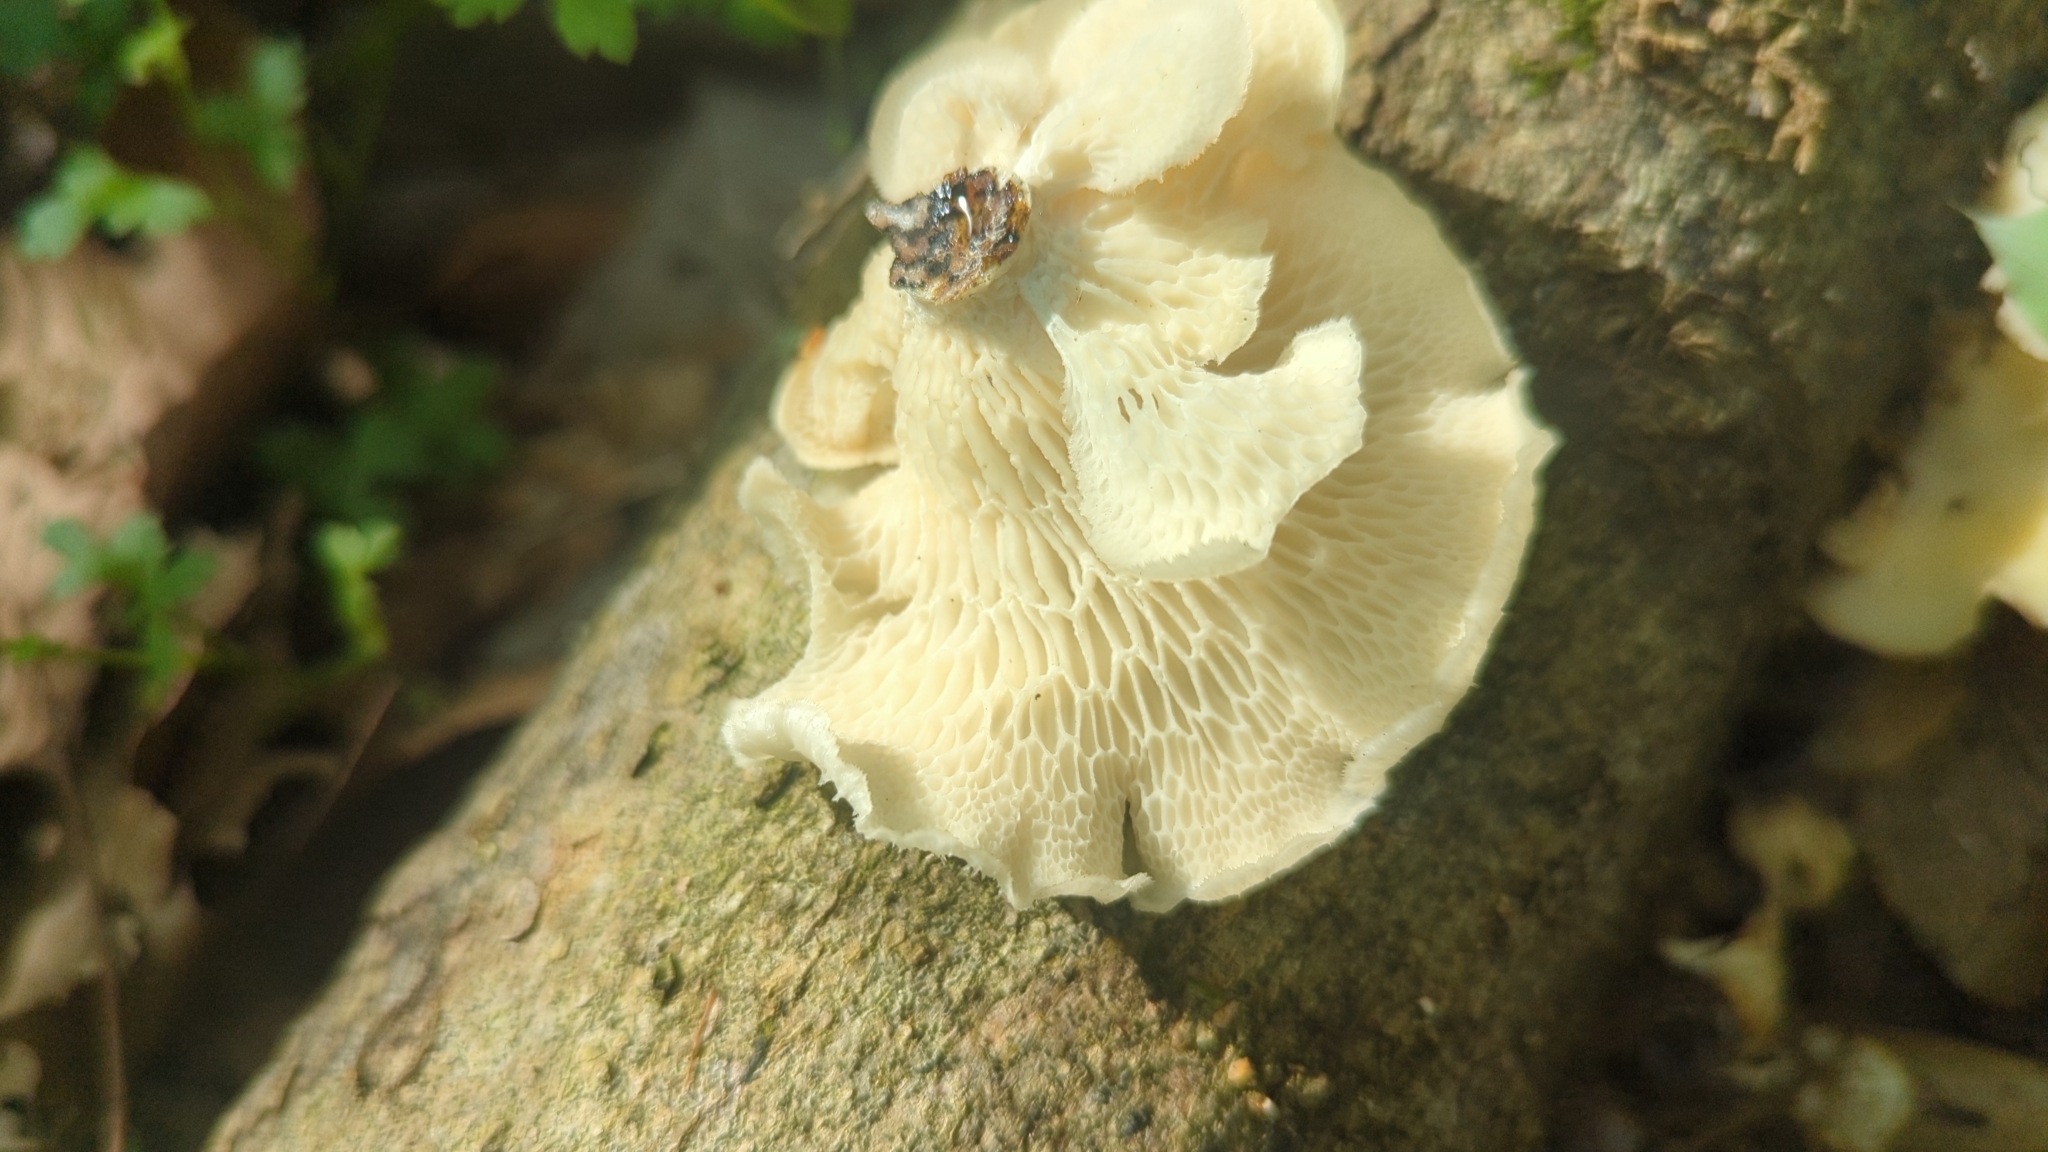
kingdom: Fungi
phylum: Basidiomycota
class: Agaricomycetes
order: Polyporales
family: Polyporaceae
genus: Favolus
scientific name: Favolus tenuiculus
